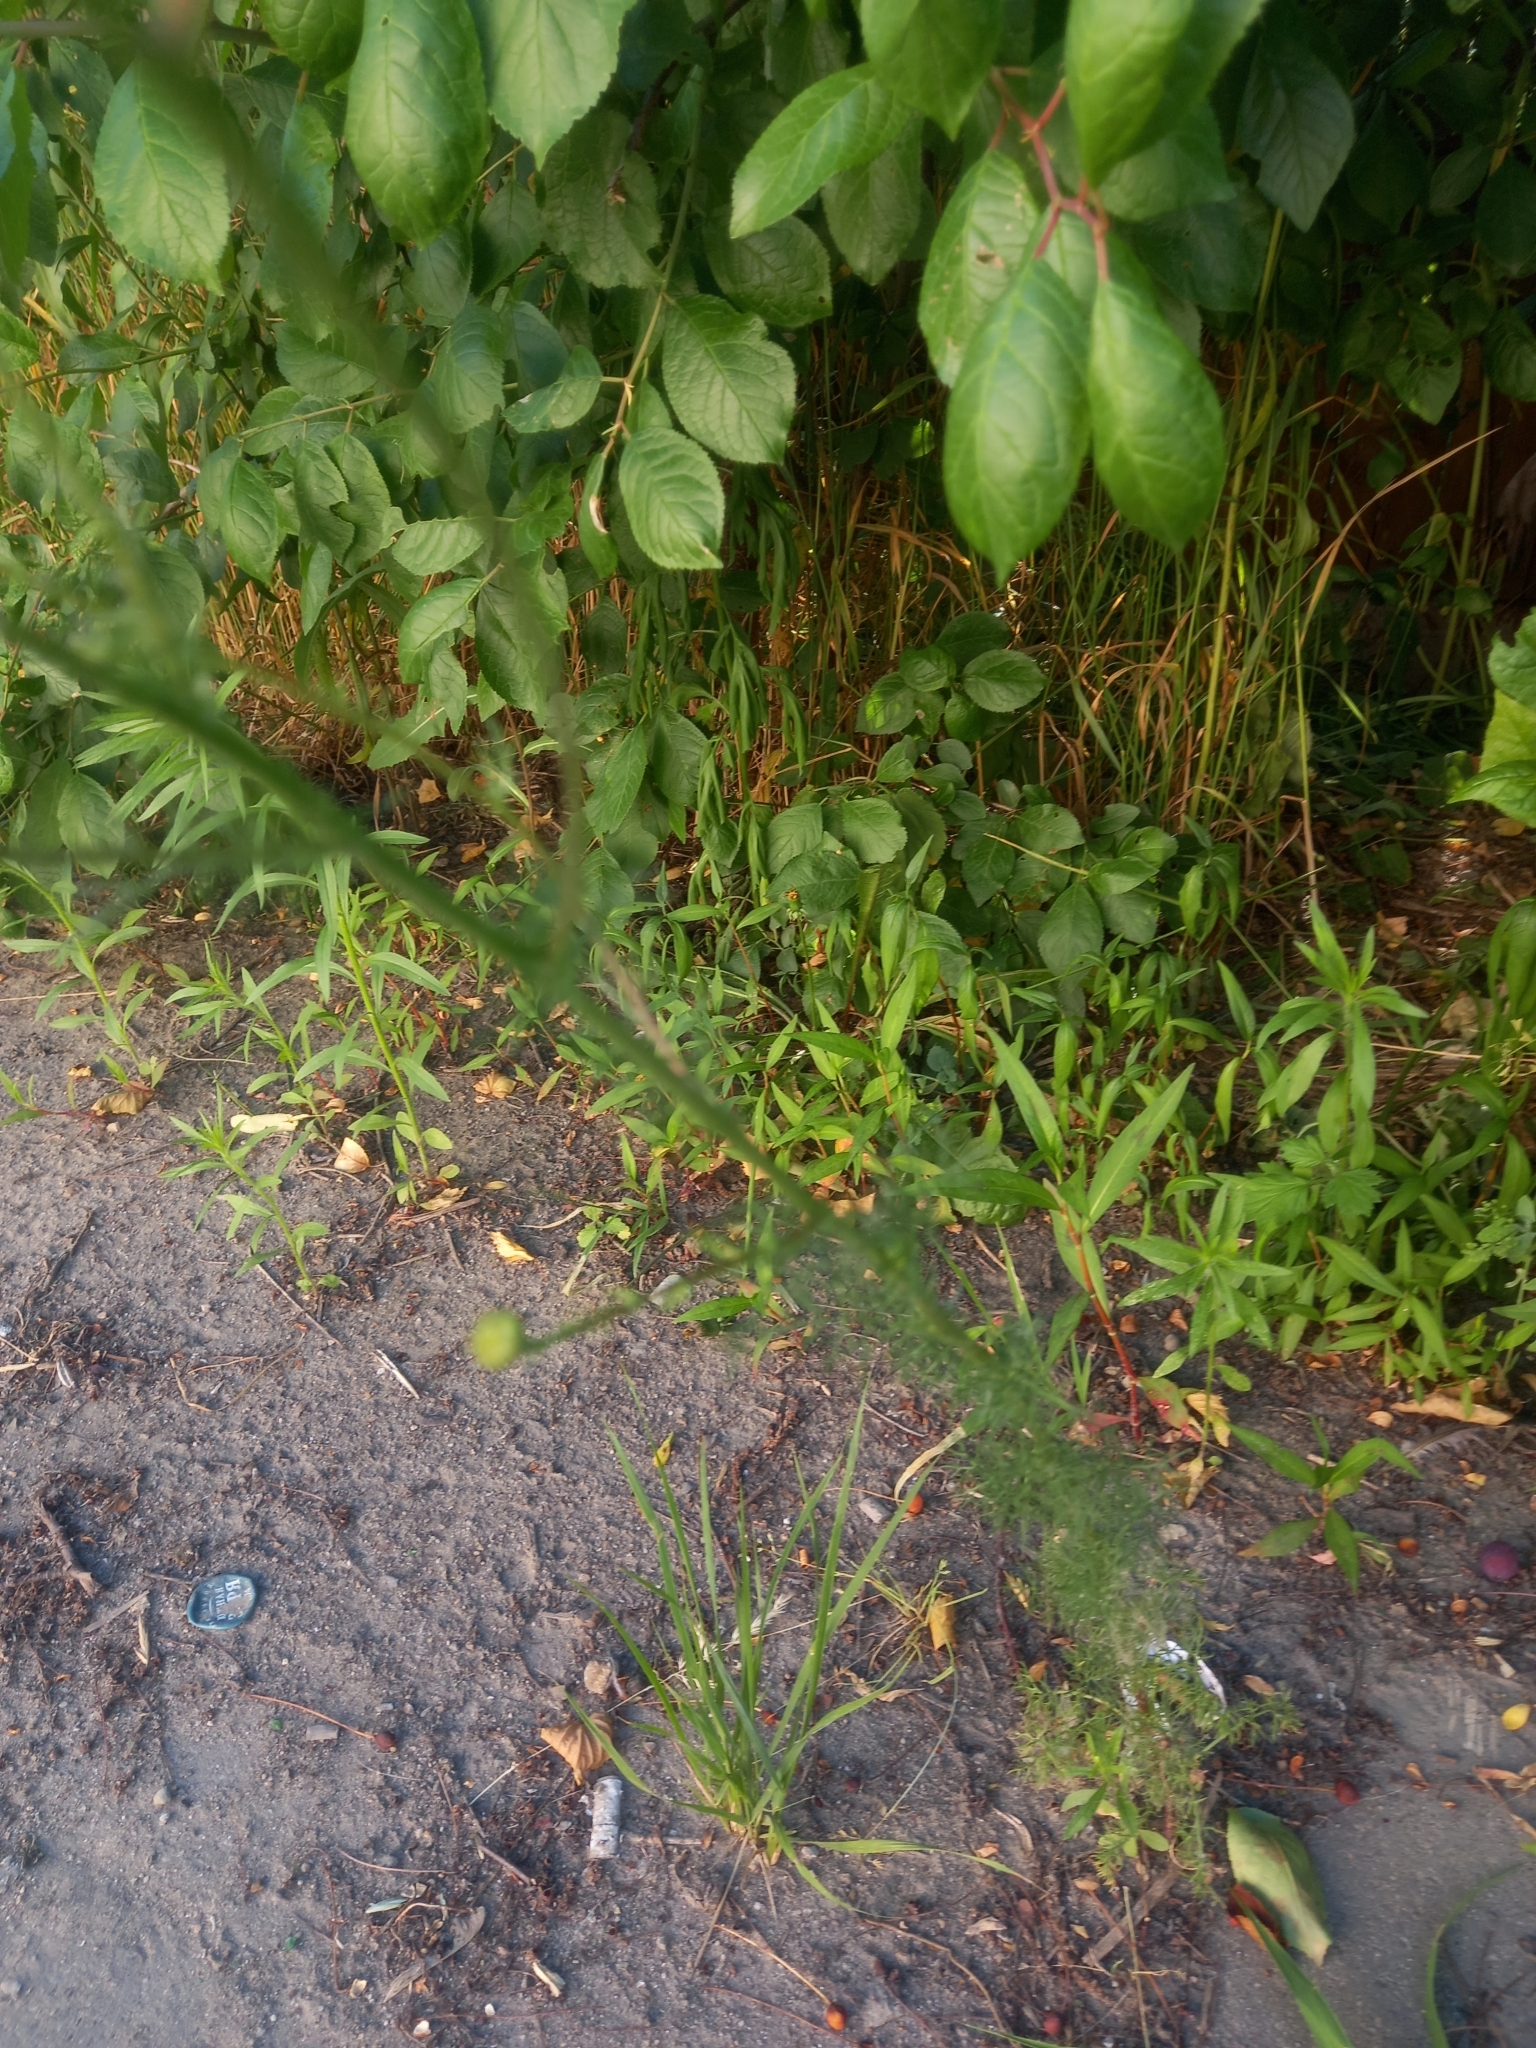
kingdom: Plantae
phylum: Tracheophyta
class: Magnoliopsida
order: Asterales
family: Asteraceae
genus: Tripleurospermum
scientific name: Tripleurospermum inodorum
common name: Scentless mayweed
